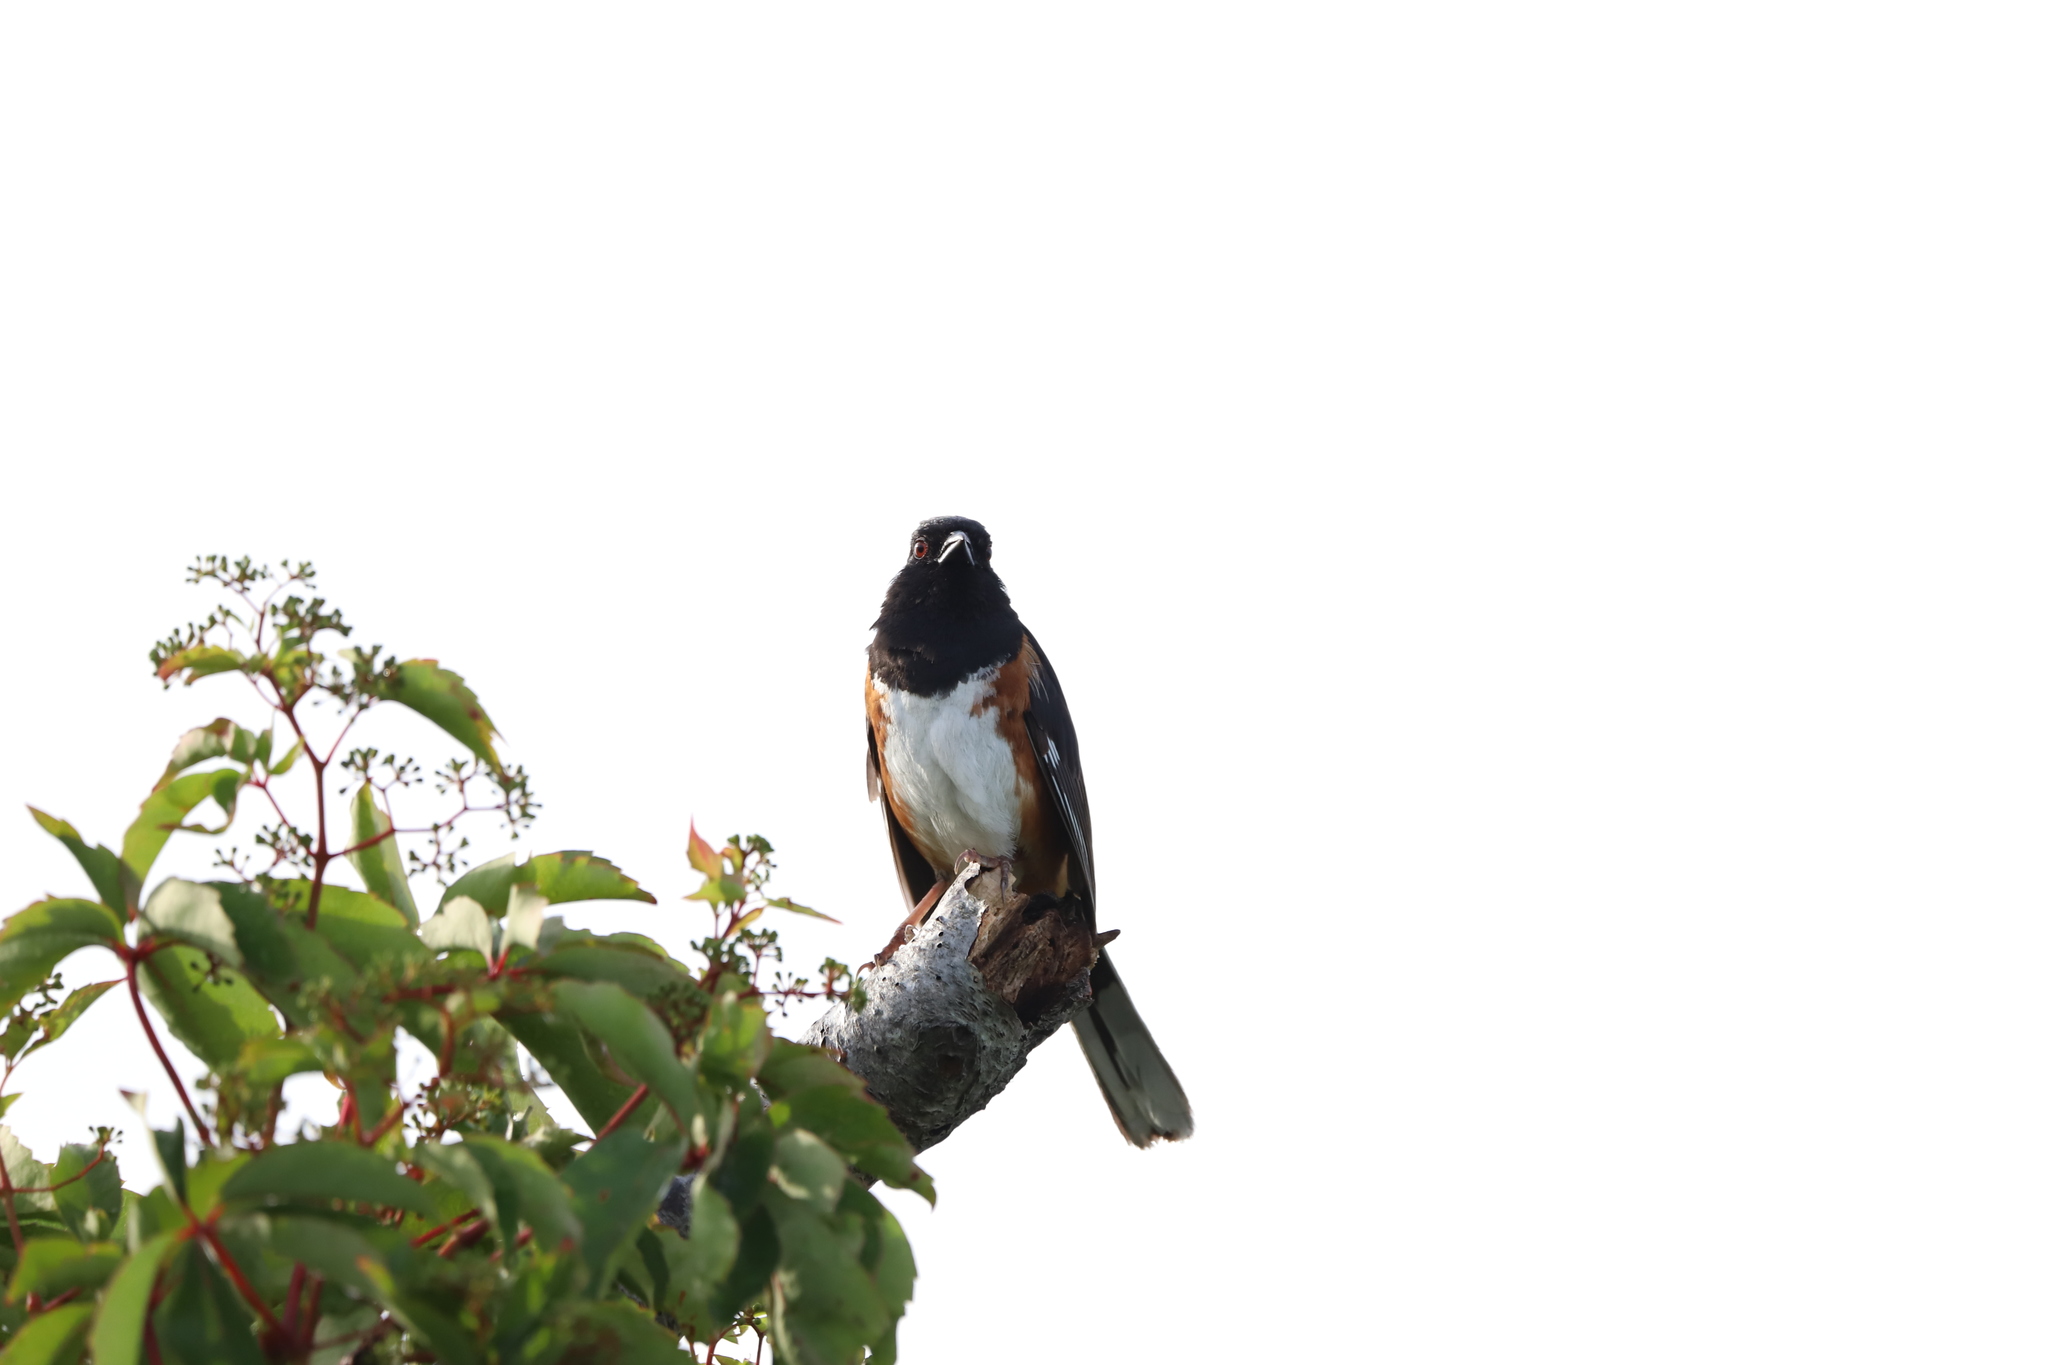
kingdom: Animalia
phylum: Chordata
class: Aves
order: Passeriformes
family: Passerellidae
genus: Pipilo
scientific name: Pipilo erythrophthalmus
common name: Eastern towhee
